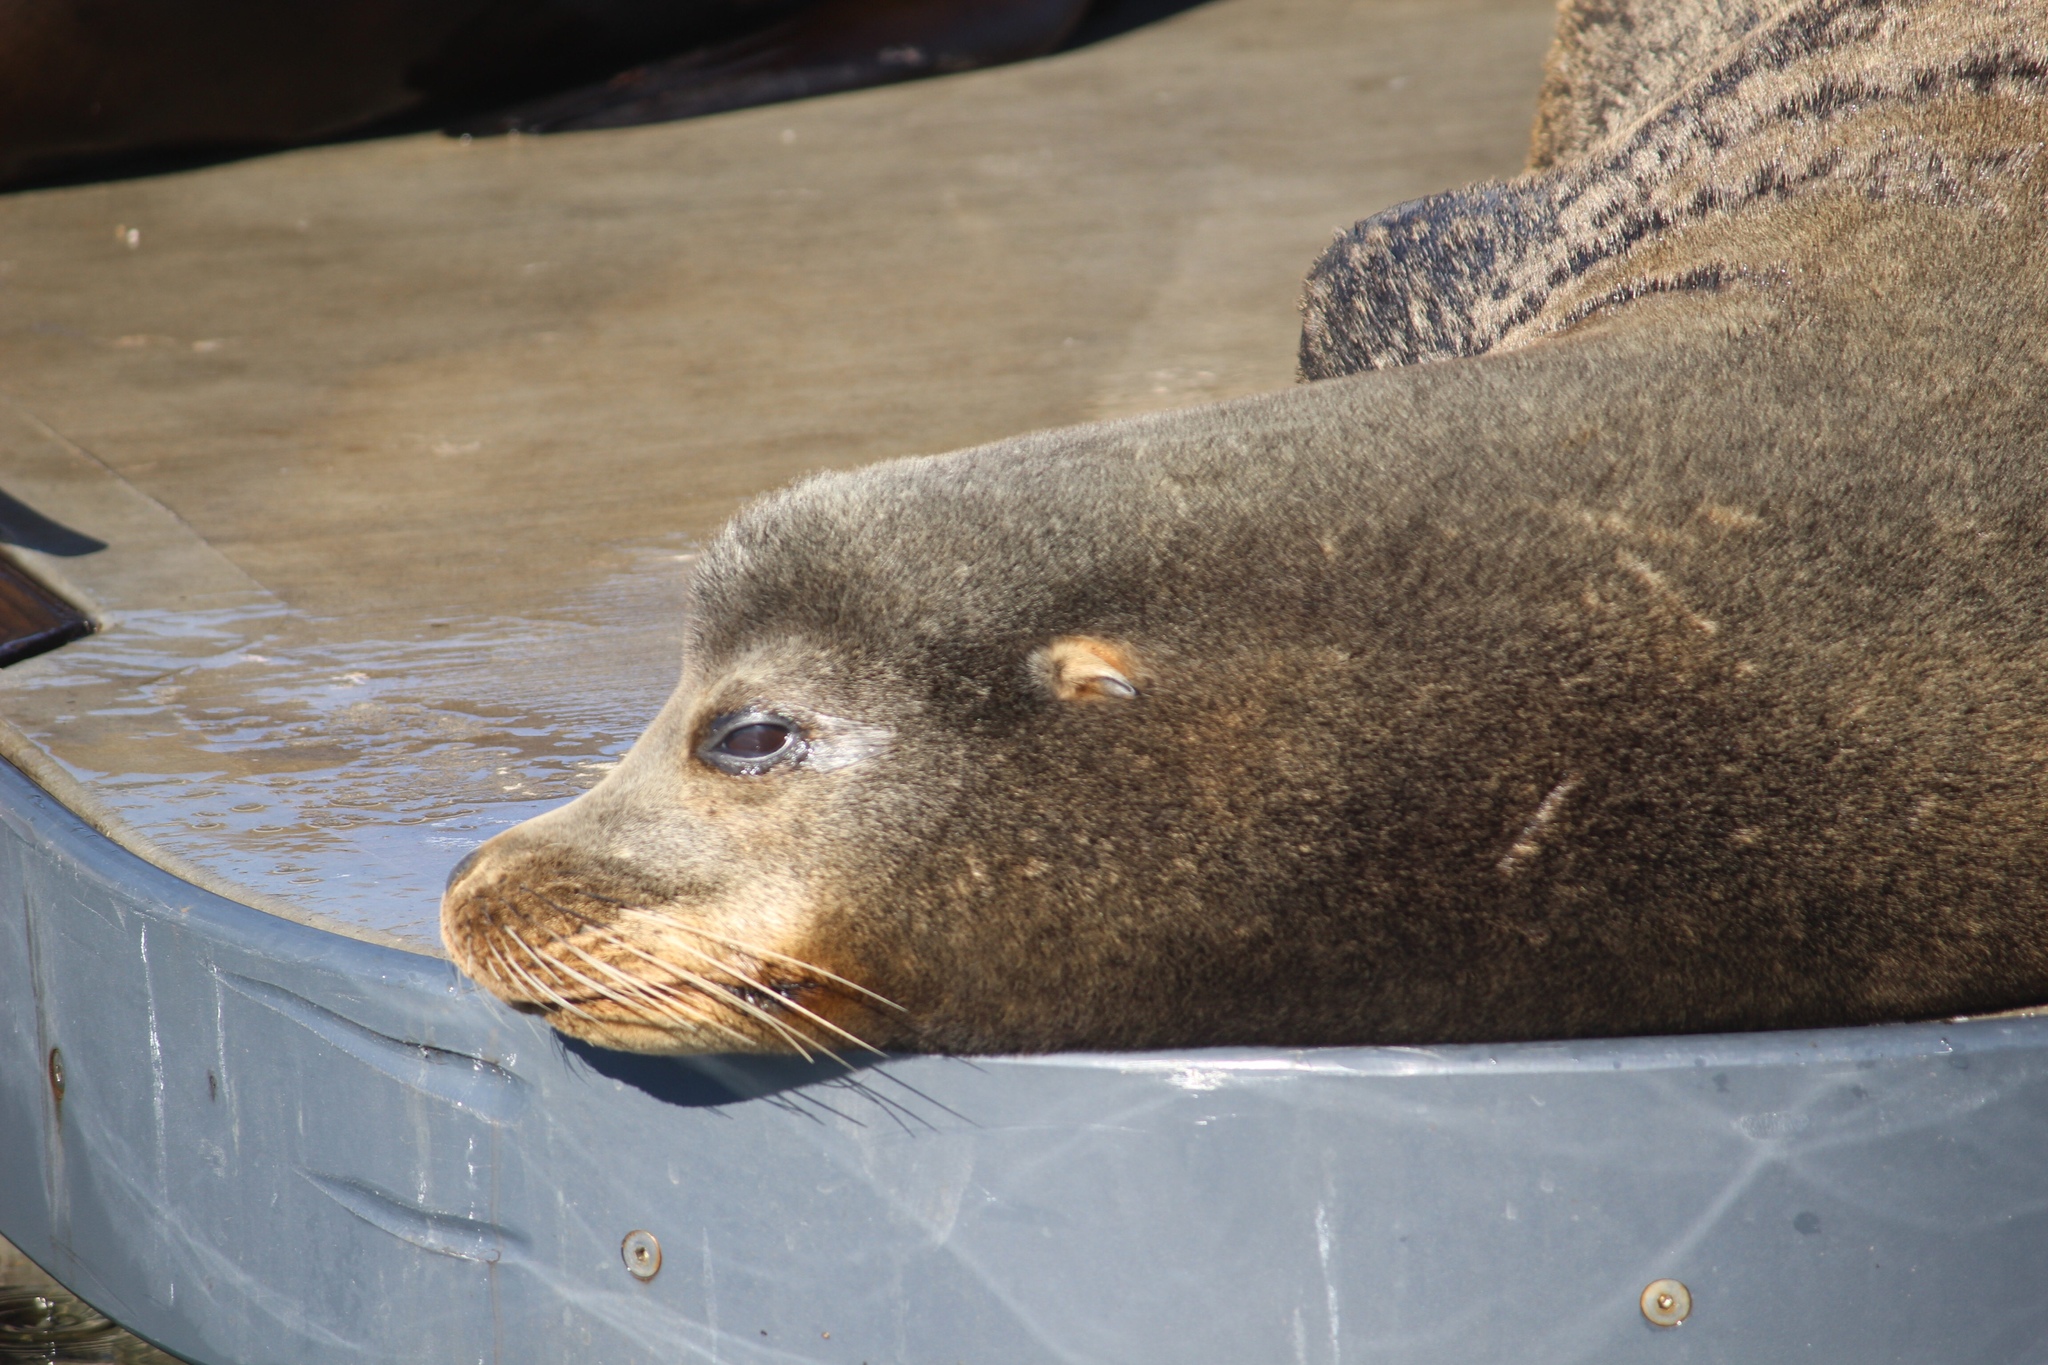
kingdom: Animalia
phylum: Chordata
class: Mammalia
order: Carnivora
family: Otariidae
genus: Zalophus
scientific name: Zalophus californianus
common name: California sea lion
